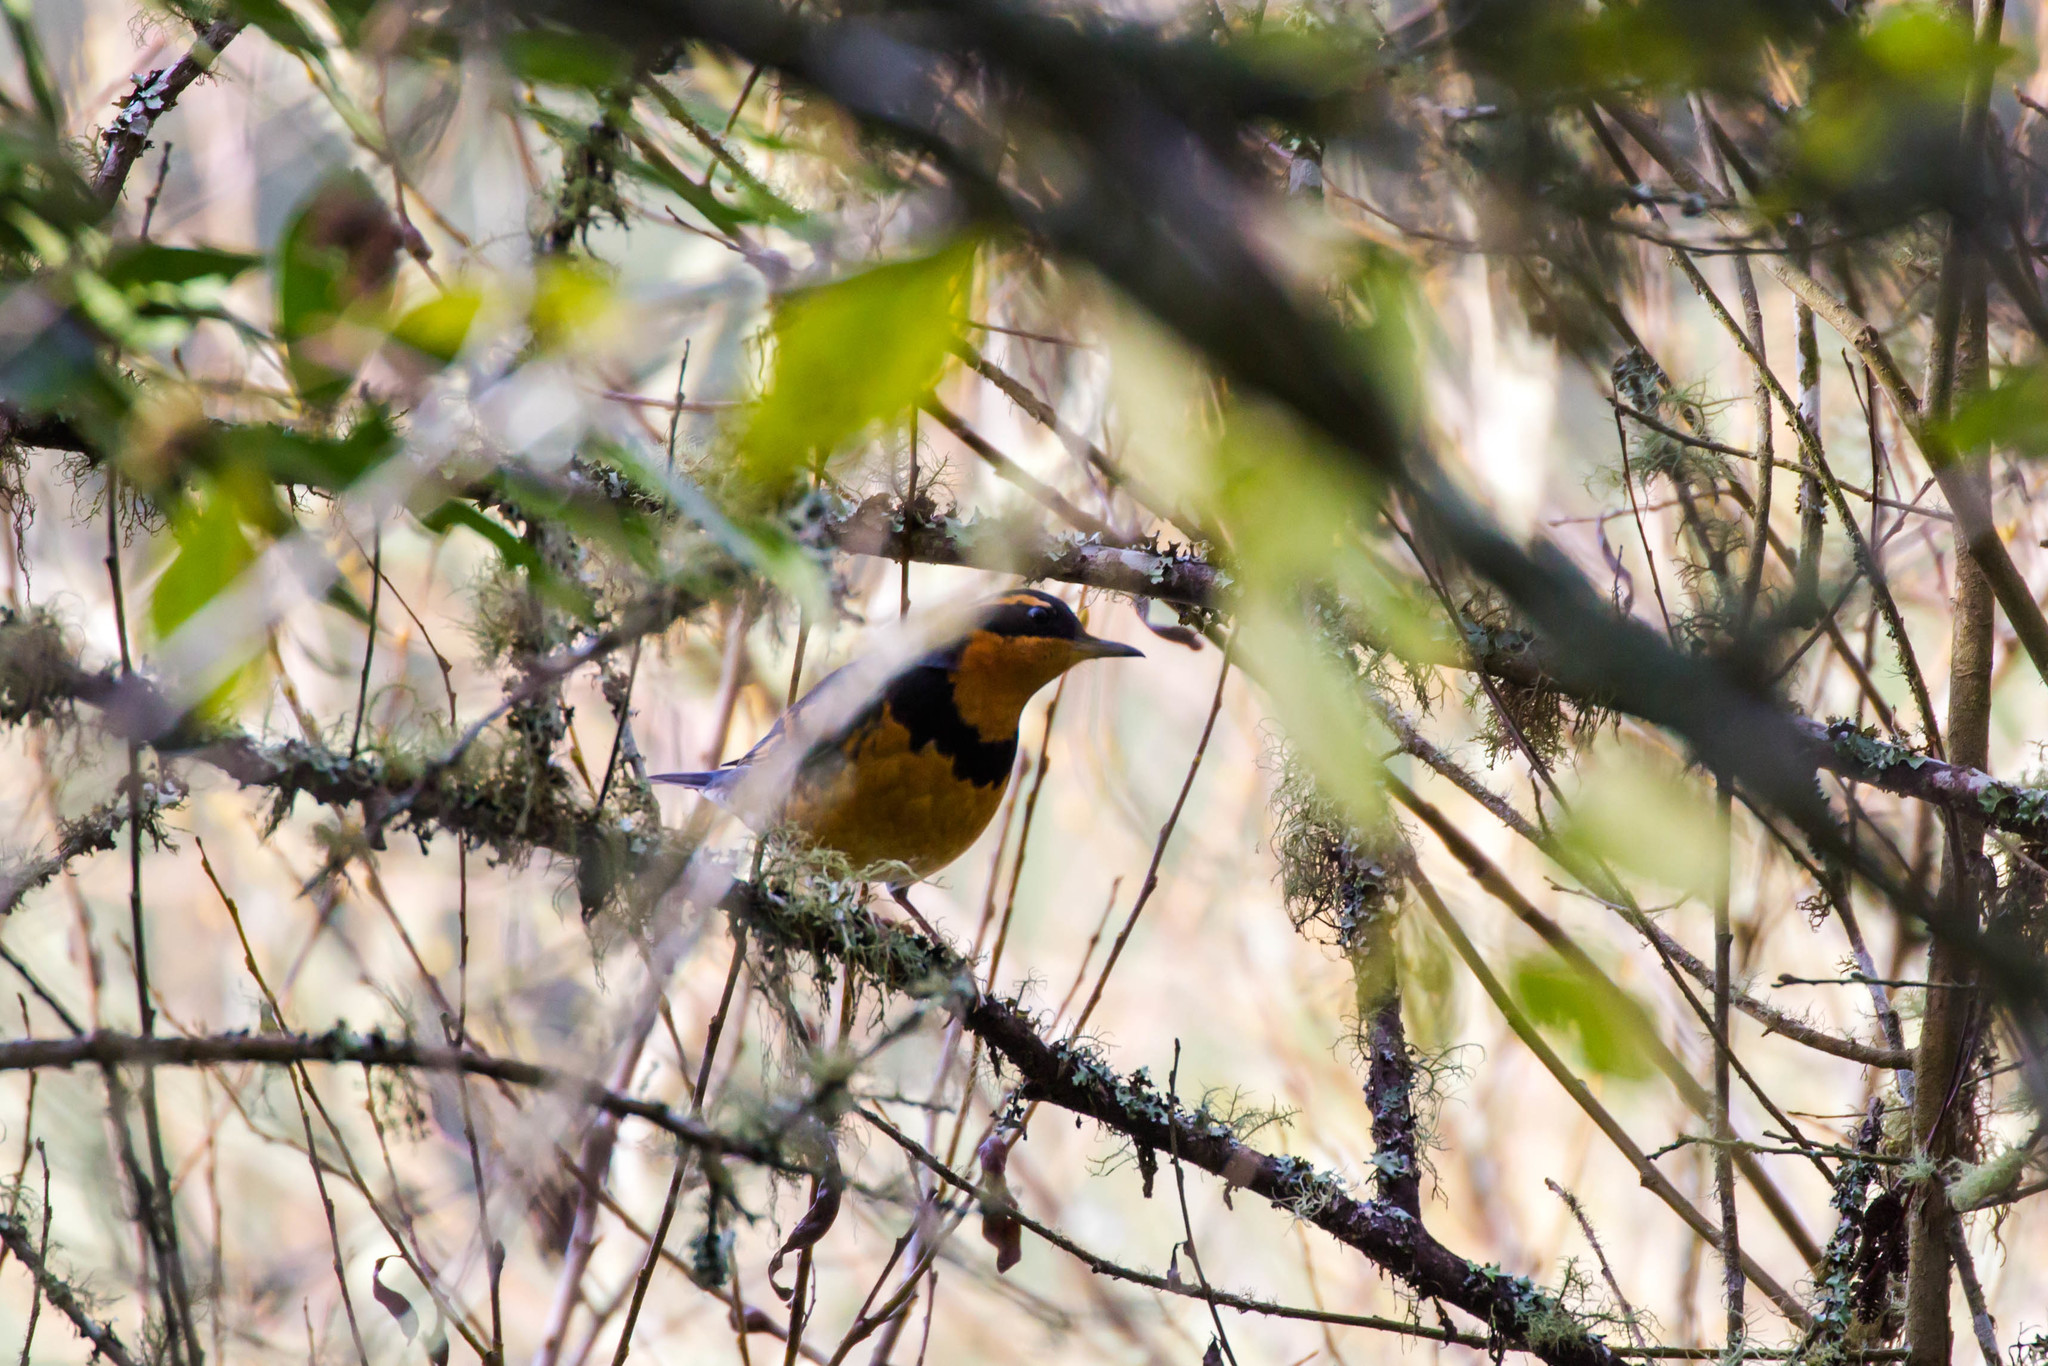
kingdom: Animalia
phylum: Chordata
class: Aves
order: Passeriformes
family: Turdidae
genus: Ixoreus
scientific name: Ixoreus naevius
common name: Varied thrush
